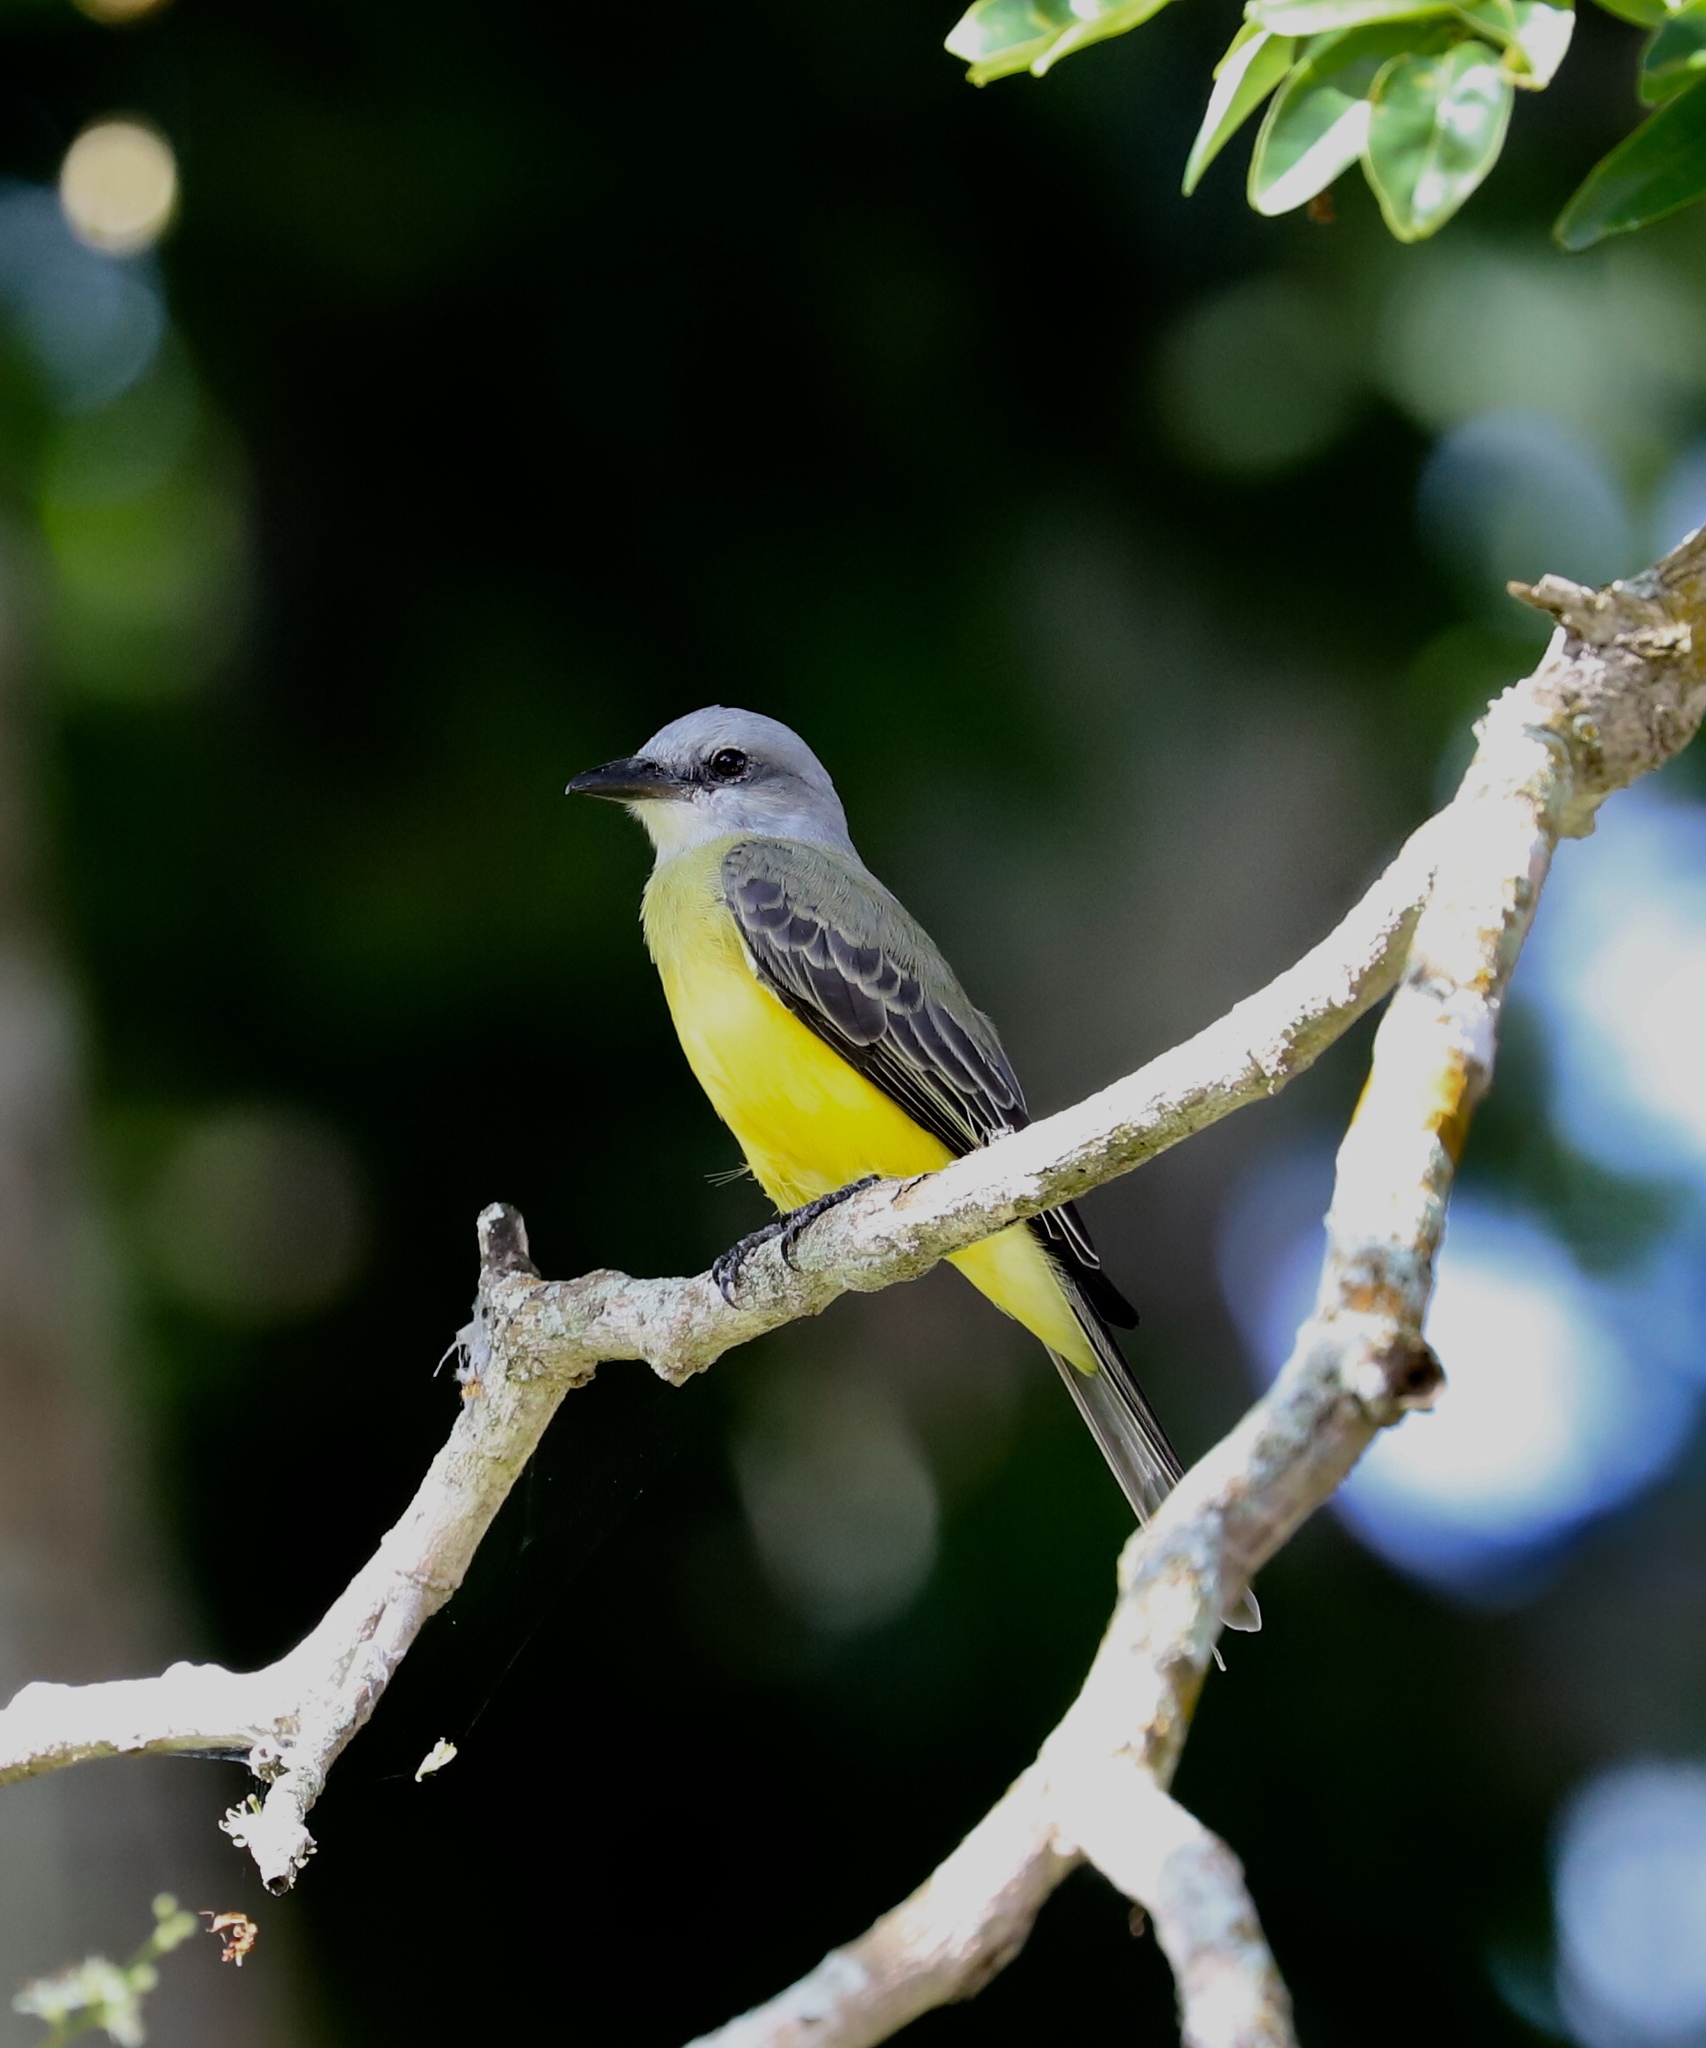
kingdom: Animalia
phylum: Chordata
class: Aves
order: Passeriformes
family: Tyrannidae
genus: Tyrannus
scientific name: Tyrannus melancholicus
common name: Tropical kingbird
